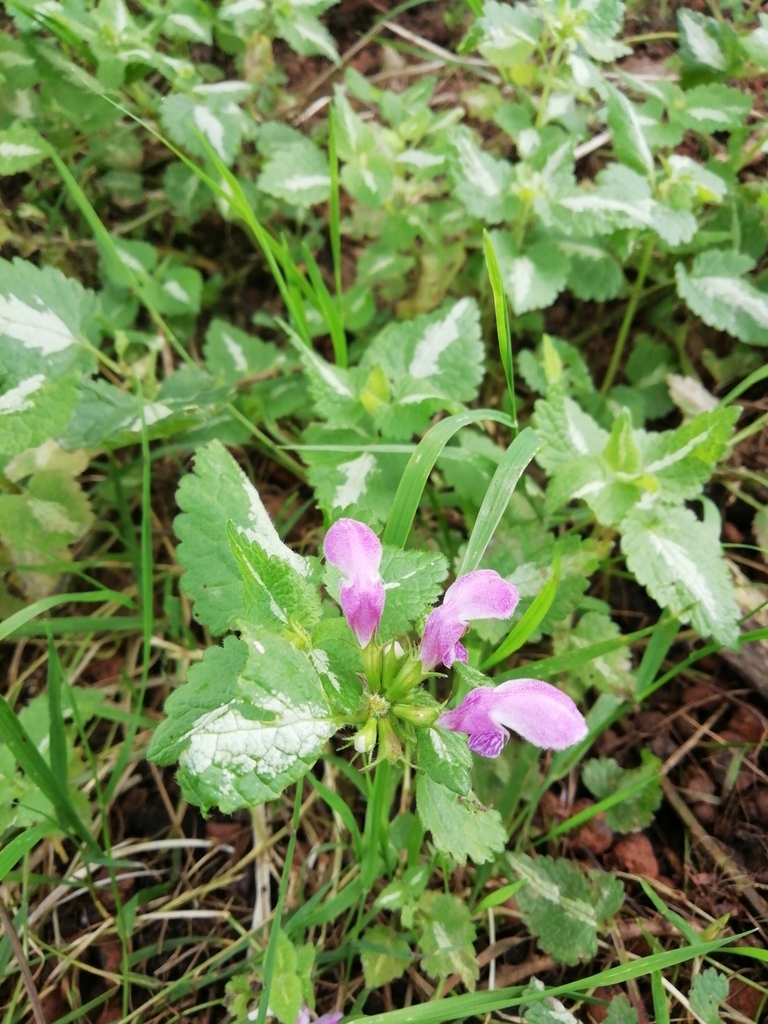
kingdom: Plantae
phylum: Tracheophyta
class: Magnoliopsida
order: Lamiales
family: Lamiaceae
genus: Lamium
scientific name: Lamium maculatum
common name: Spotted dead-nettle
